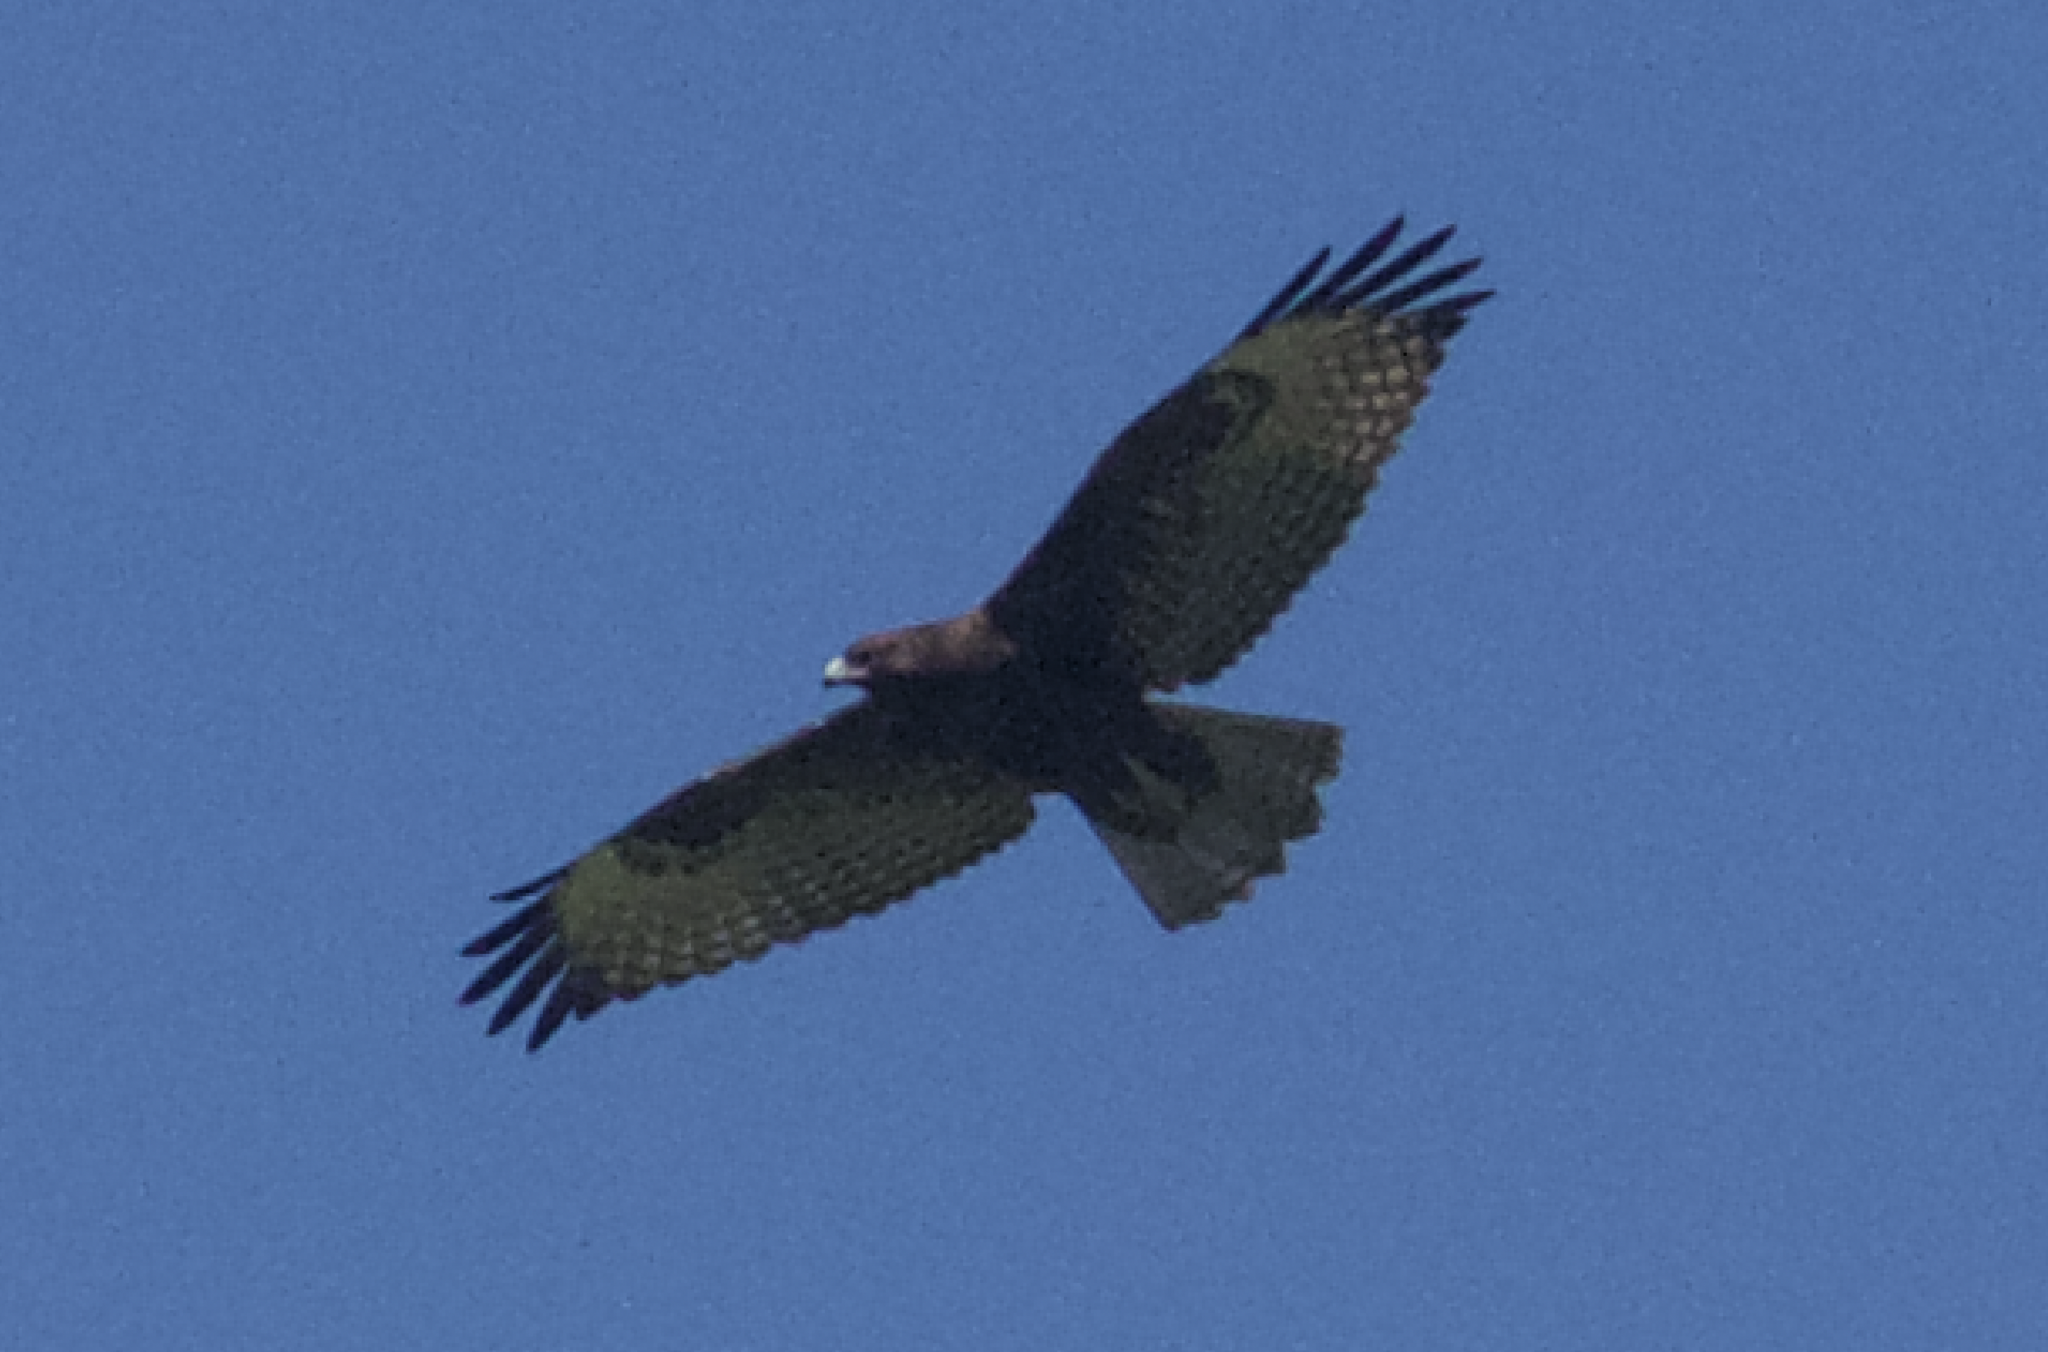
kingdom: Animalia
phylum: Chordata
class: Aves
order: Accipitriformes
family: Accipitridae
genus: Buteo
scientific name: Buteo jamaicensis
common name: Red-tailed hawk
